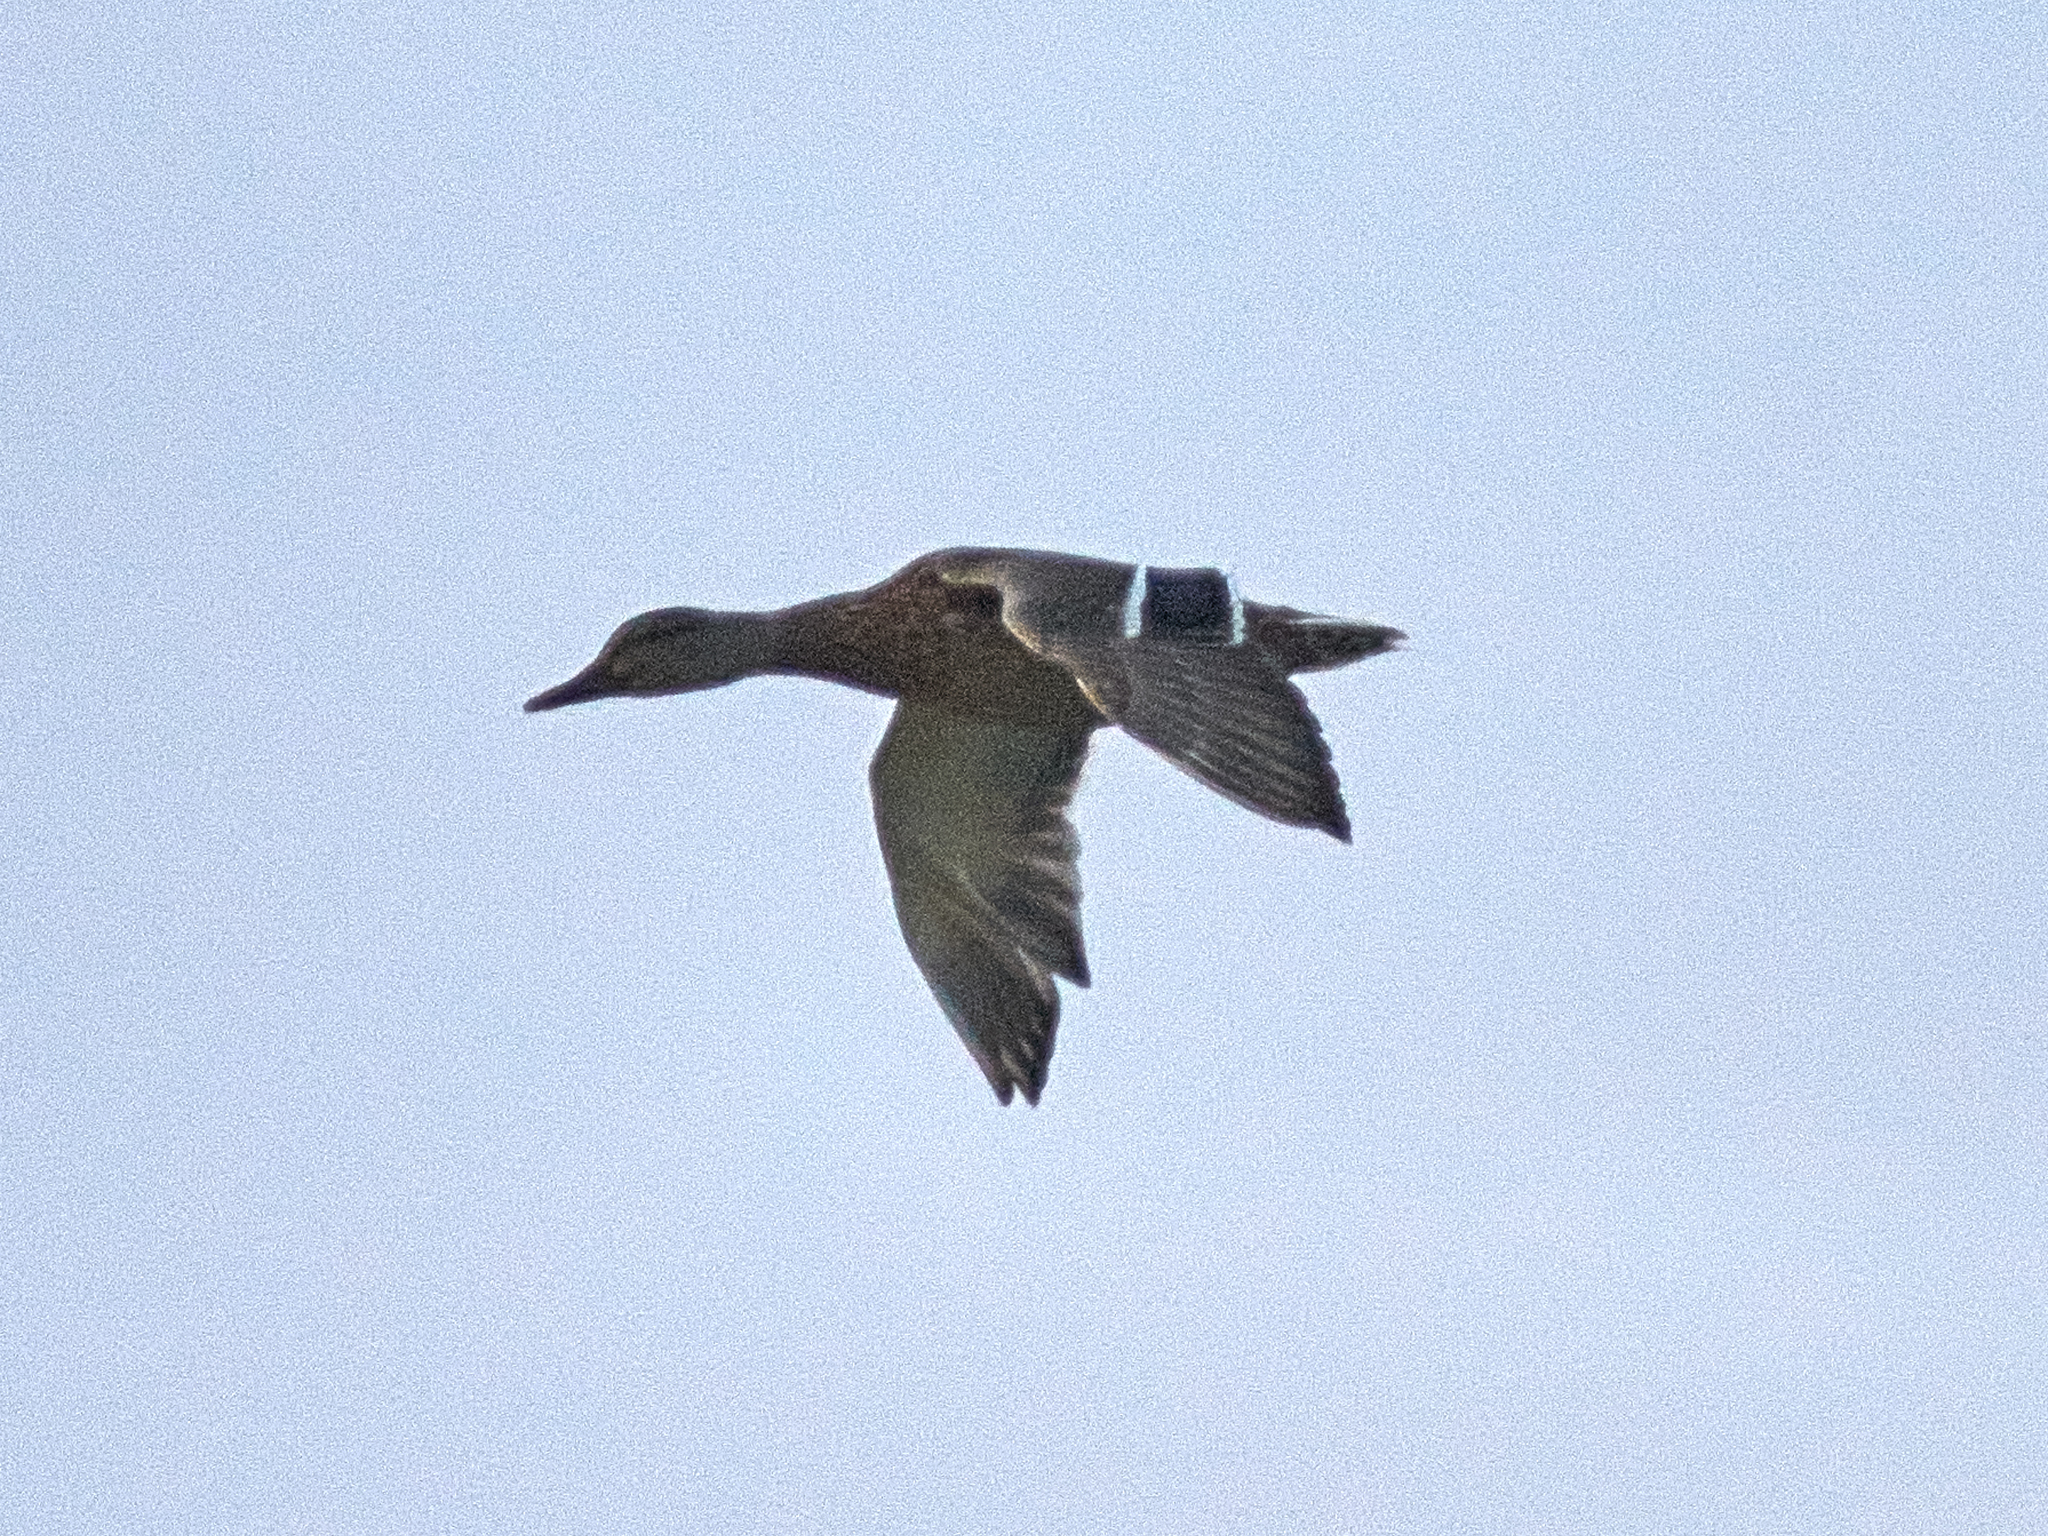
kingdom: Animalia
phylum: Chordata
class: Aves
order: Anseriformes
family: Anatidae
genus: Anas
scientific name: Anas platyrhynchos
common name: Mallard
